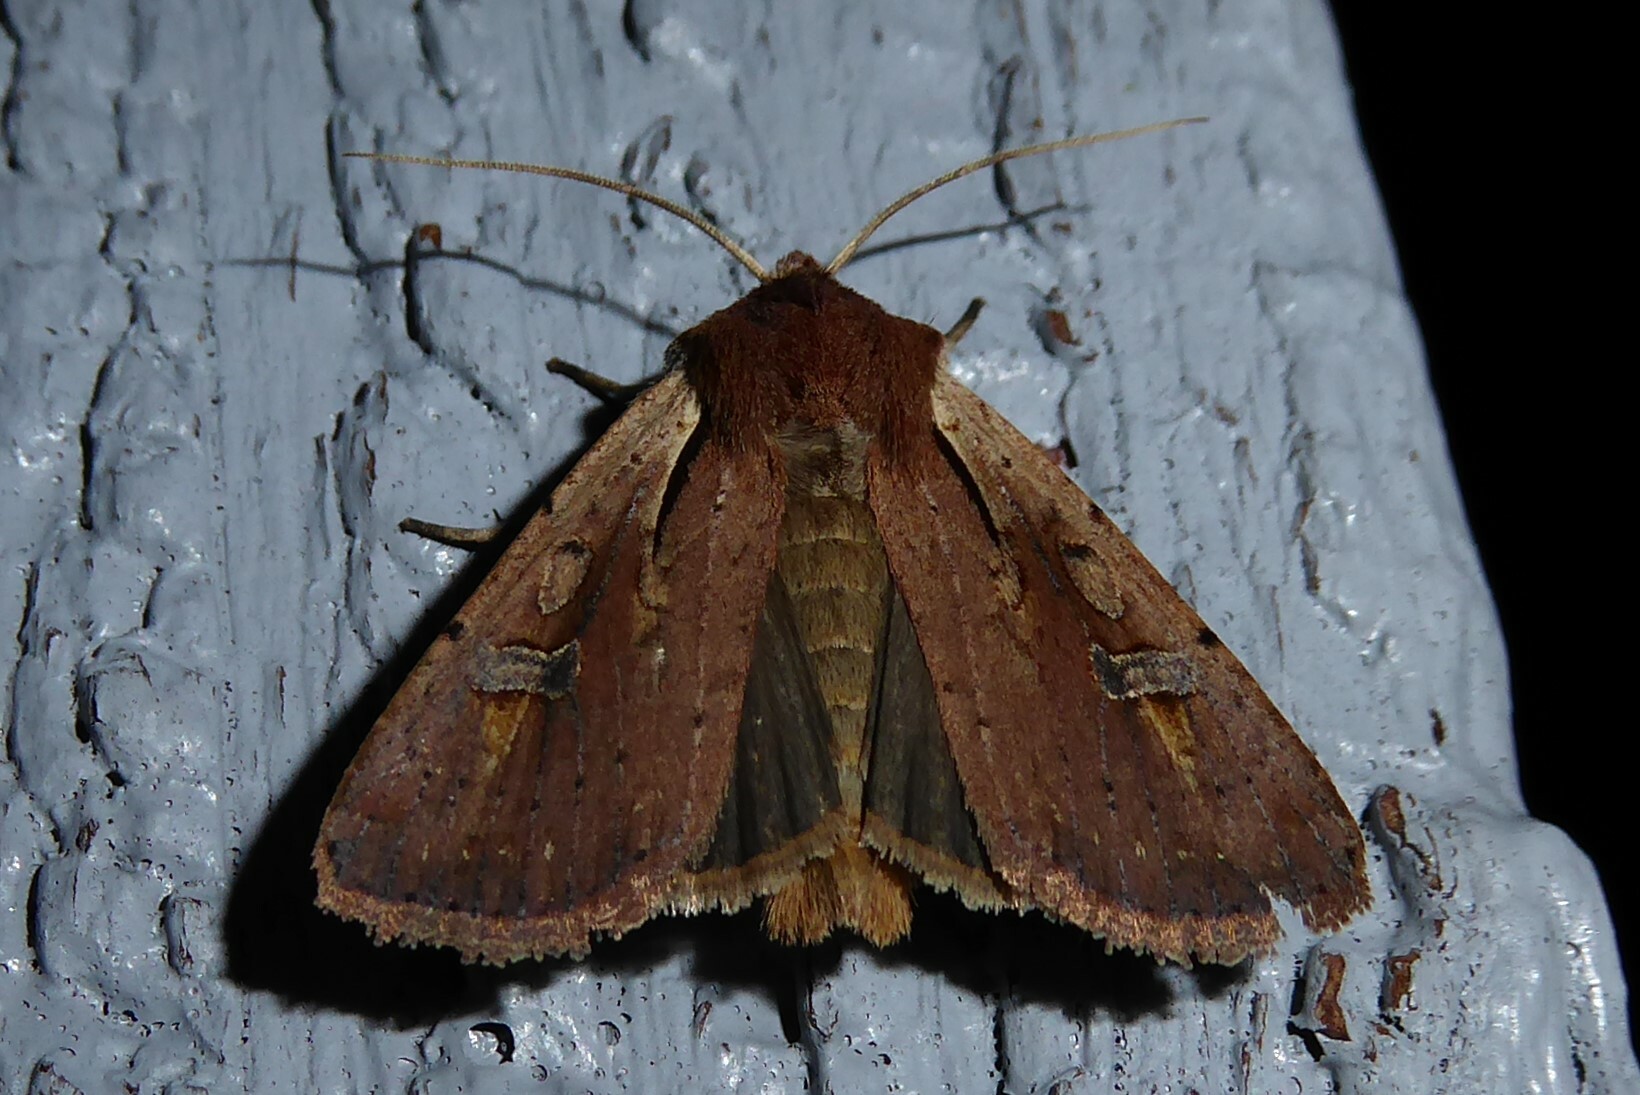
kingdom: Animalia
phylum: Arthropoda
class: Insecta
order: Lepidoptera
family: Noctuidae
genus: Ichneutica
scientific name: Ichneutica atristriga
